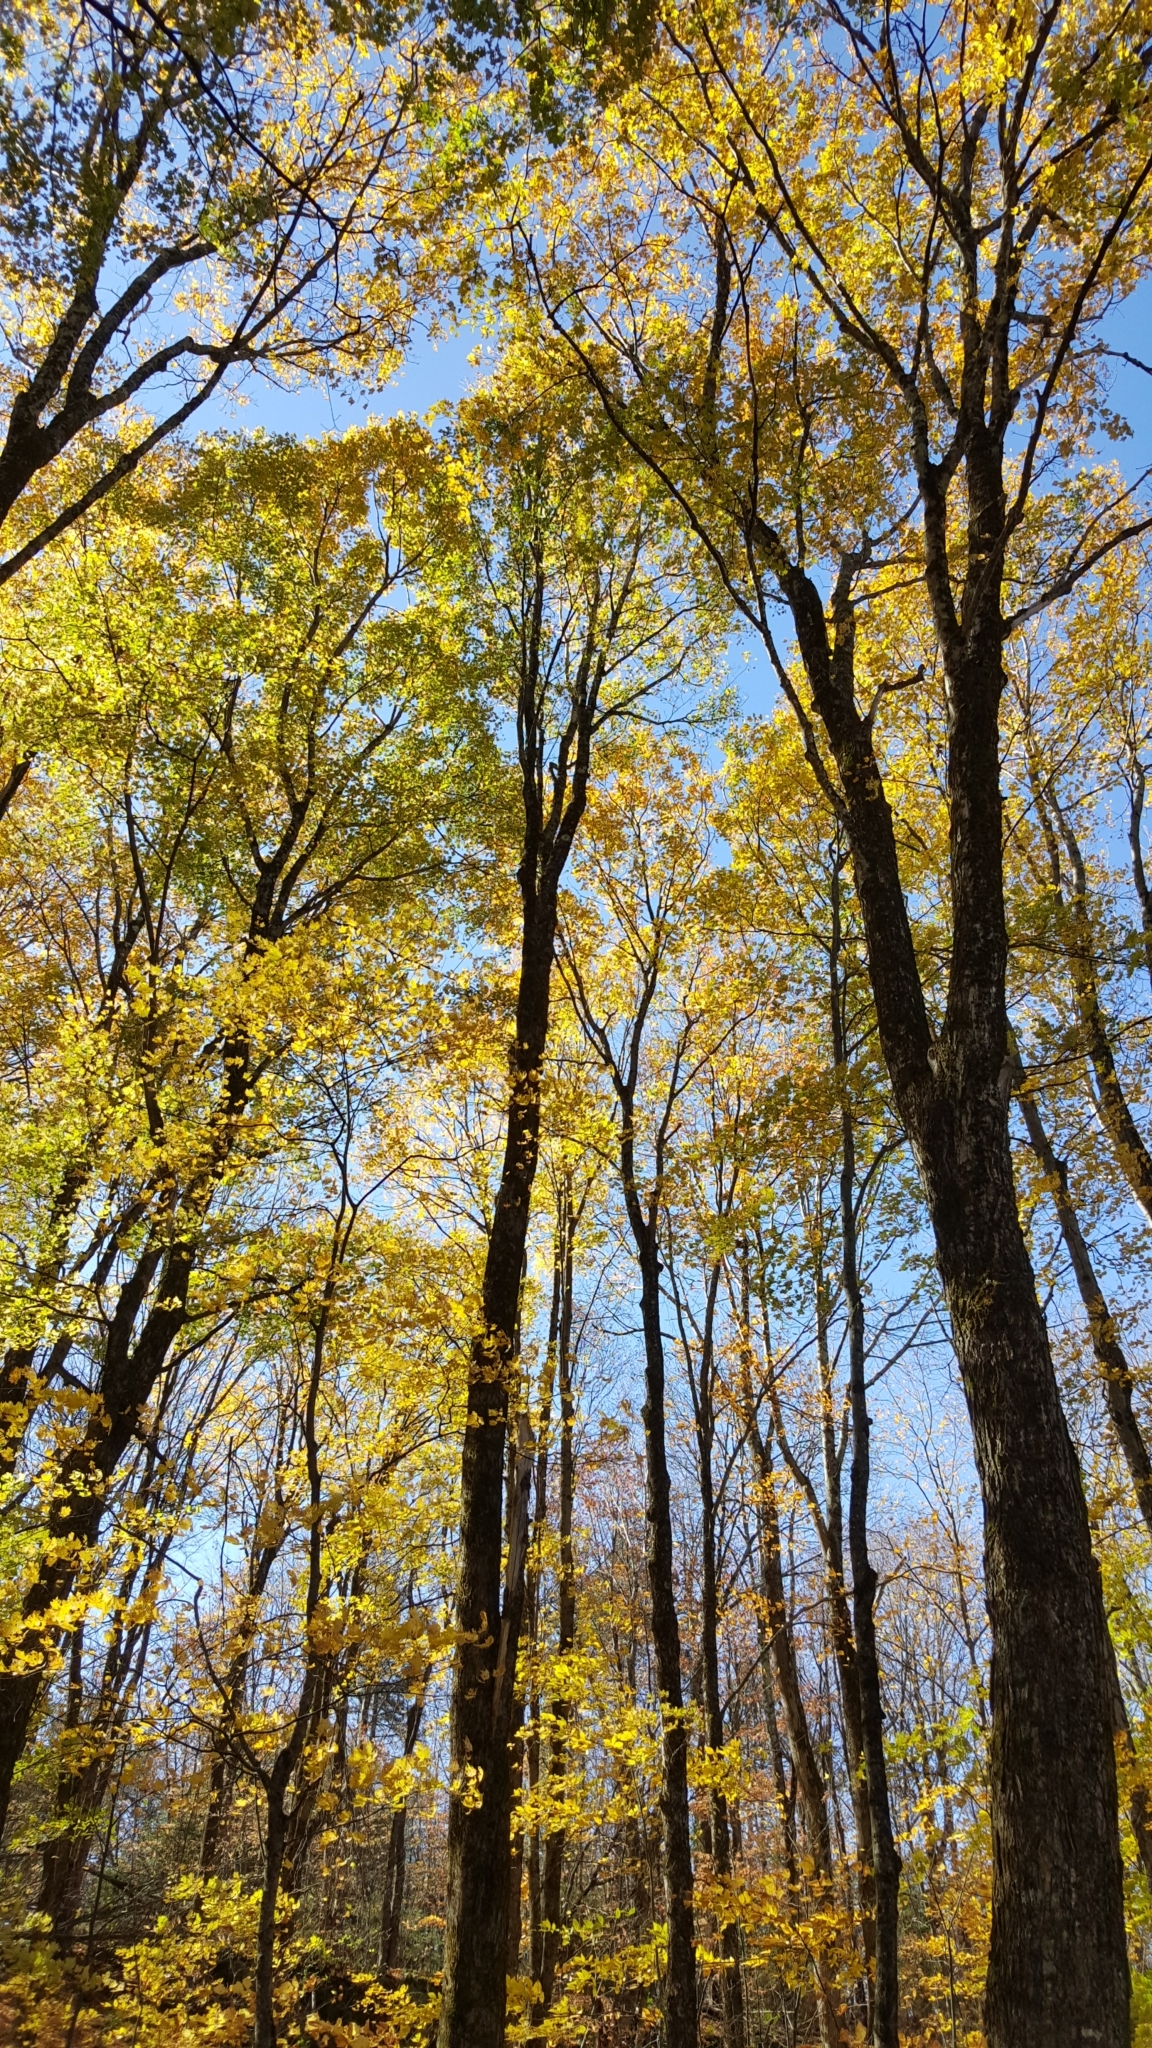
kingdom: Plantae
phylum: Tracheophyta
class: Magnoliopsida
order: Sapindales
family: Sapindaceae
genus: Acer
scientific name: Acer saccharum
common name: Sugar maple
